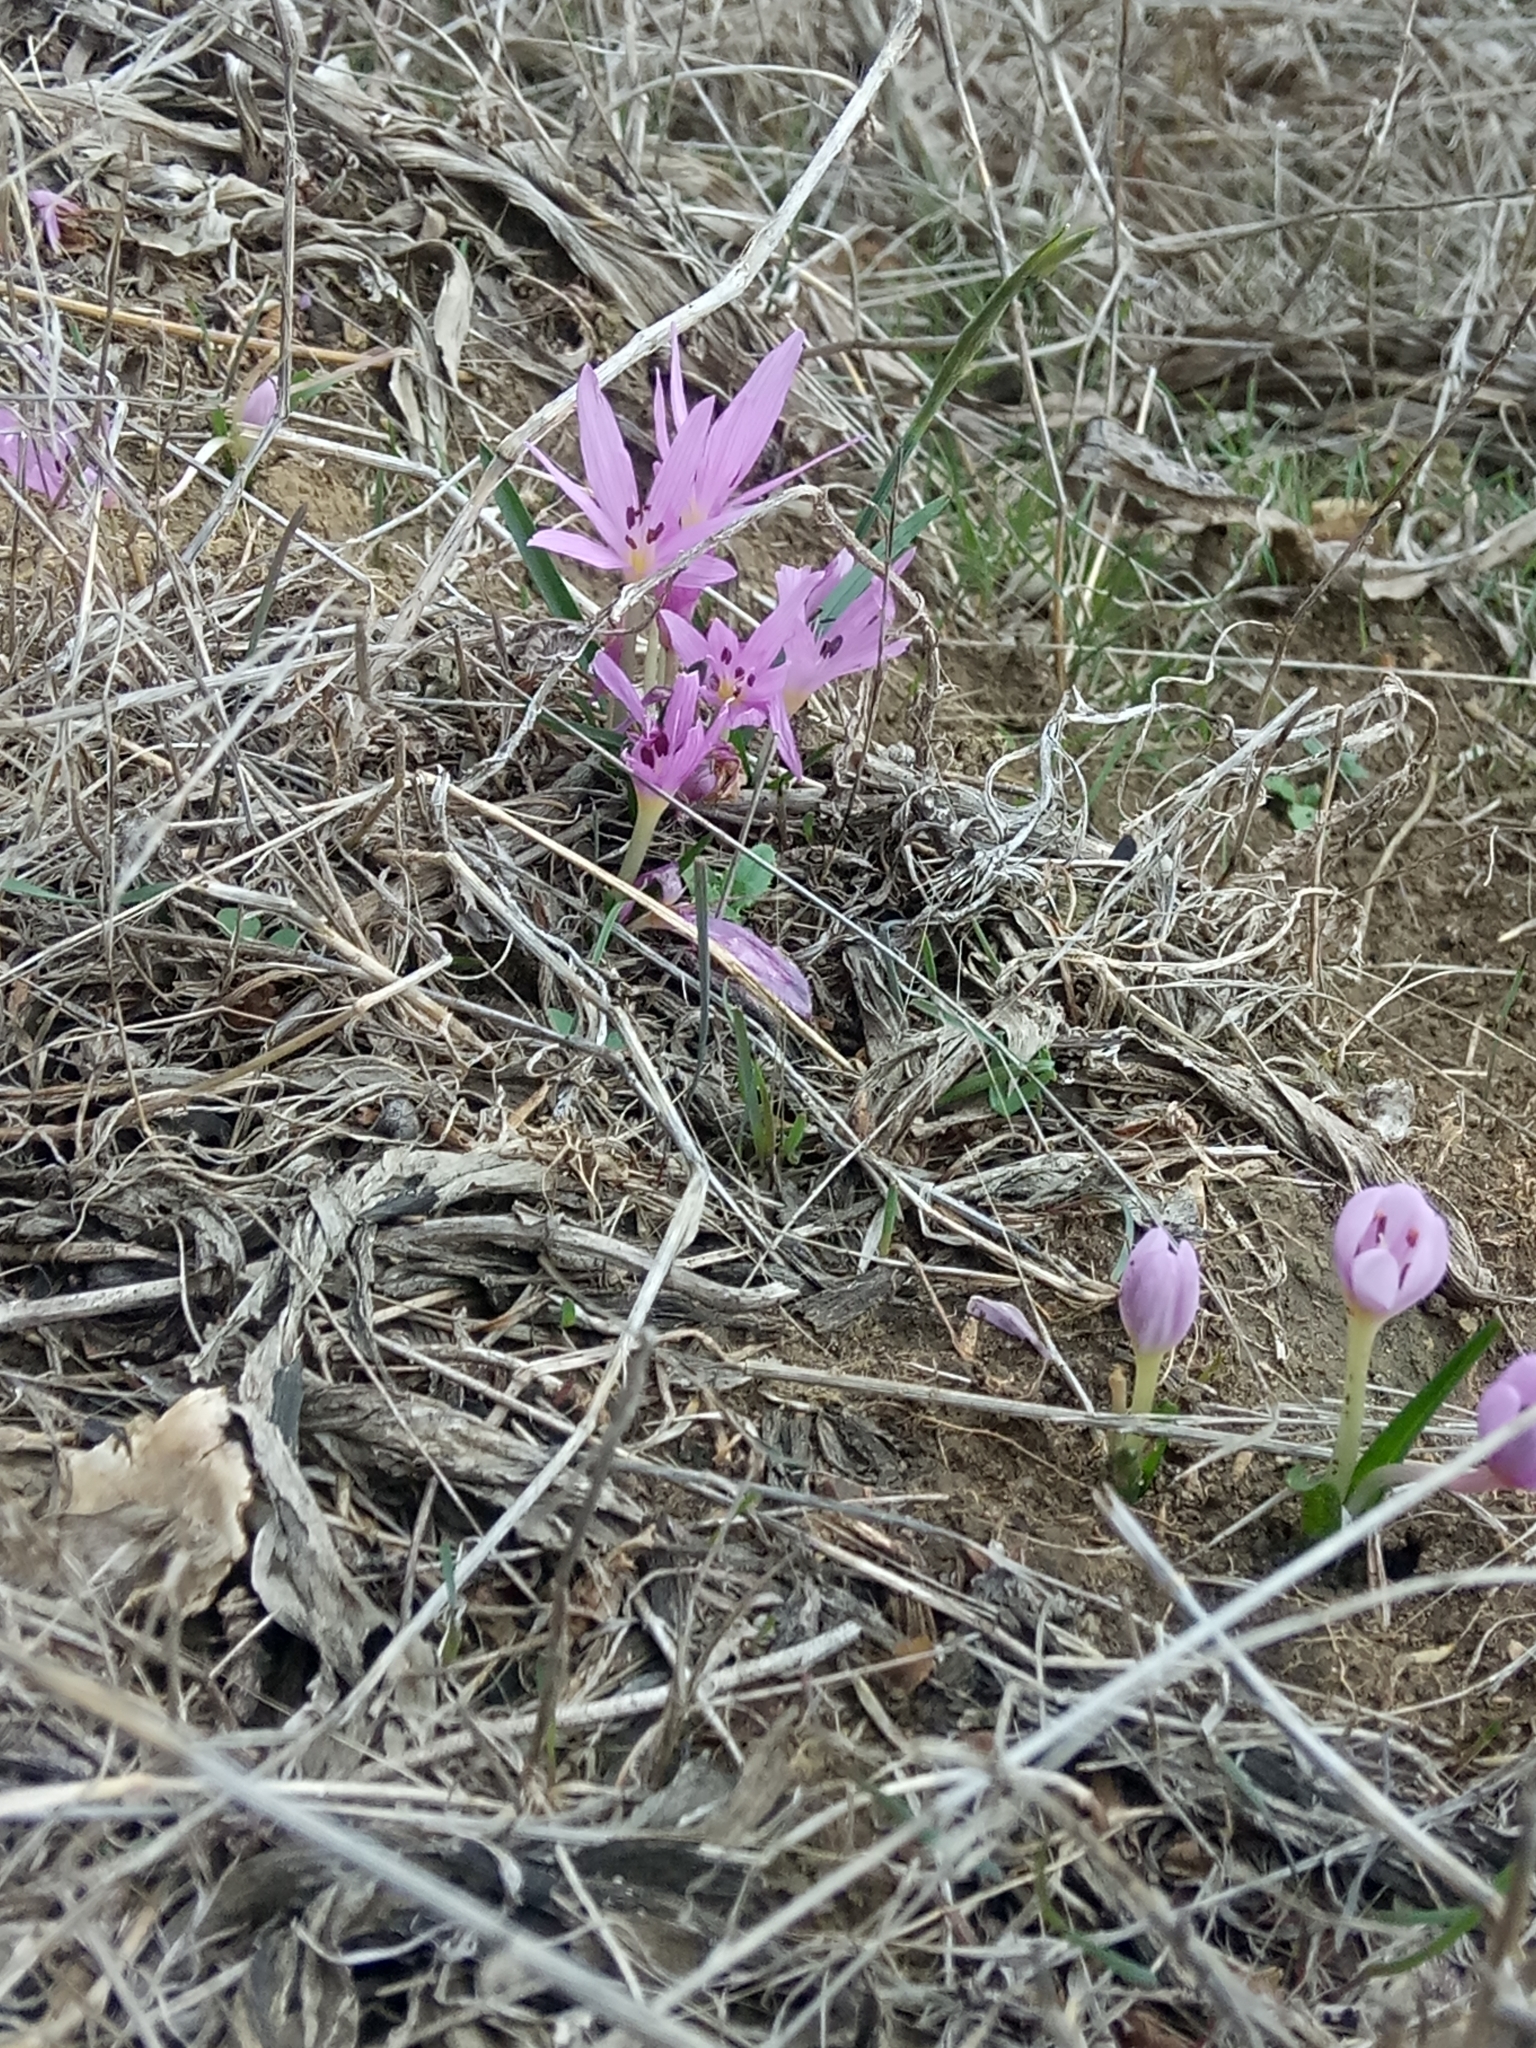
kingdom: Plantae
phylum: Tracheophyta
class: Liliopsida
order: Liliales
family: Colchicaceae
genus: Colchicum
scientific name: Colchicum cupanii
